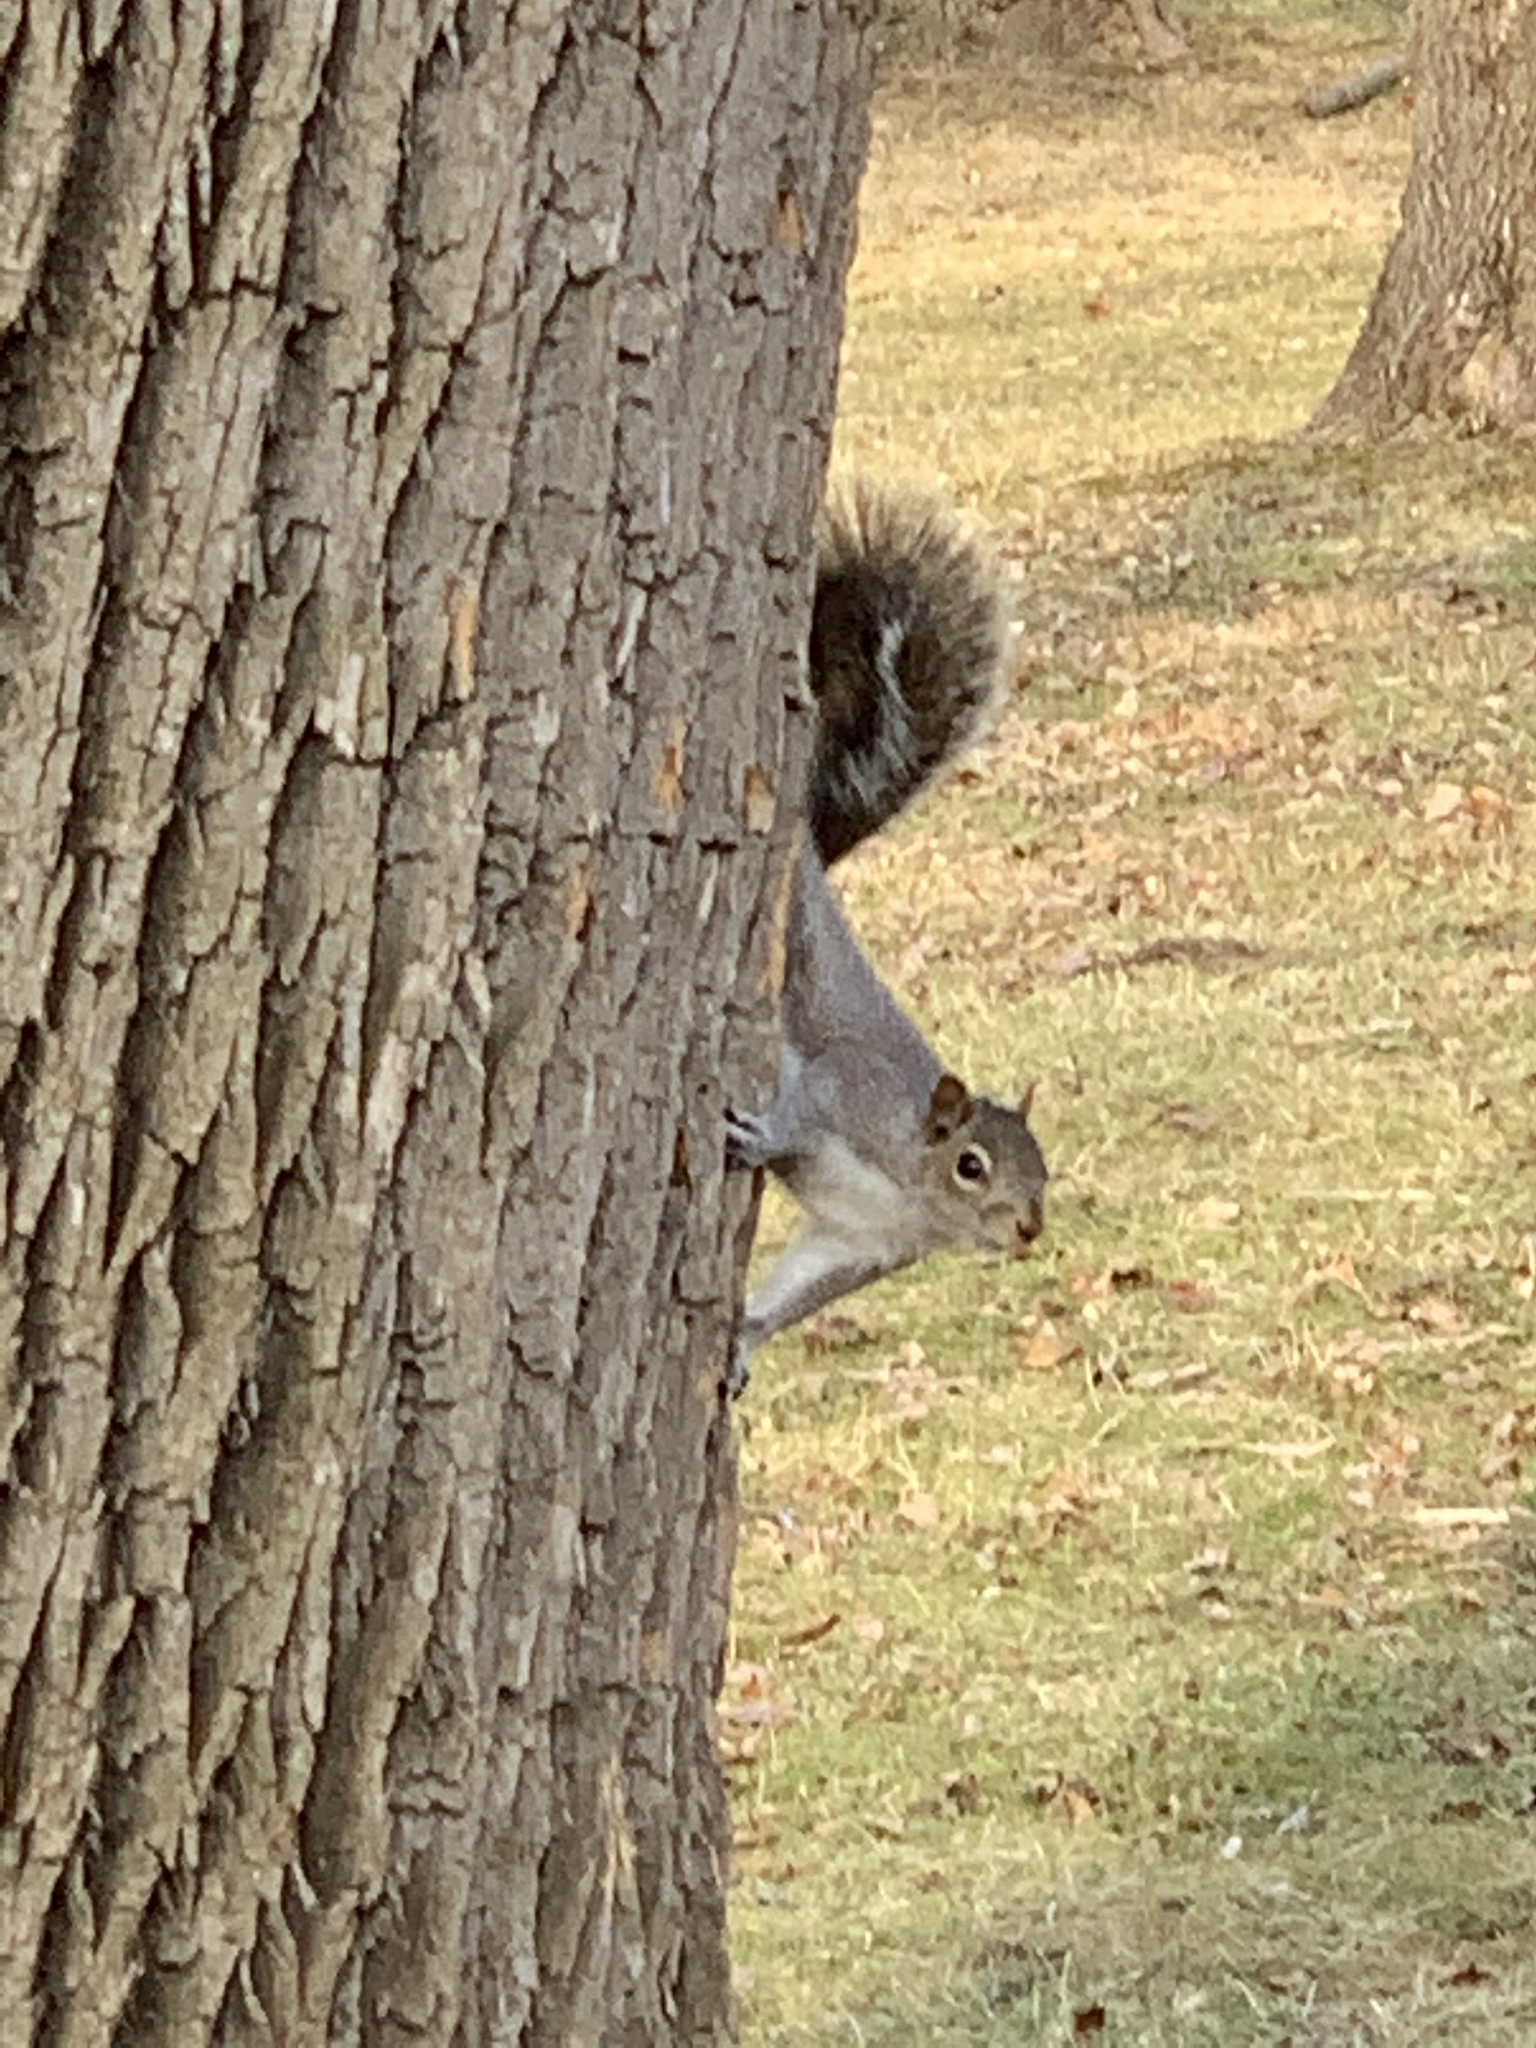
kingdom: Animalia
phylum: Chordata
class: Mammalia
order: Rodentia
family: Sciuridae
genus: Sciurus
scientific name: Sciurus carolinensis
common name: Eastern gray squirrel
